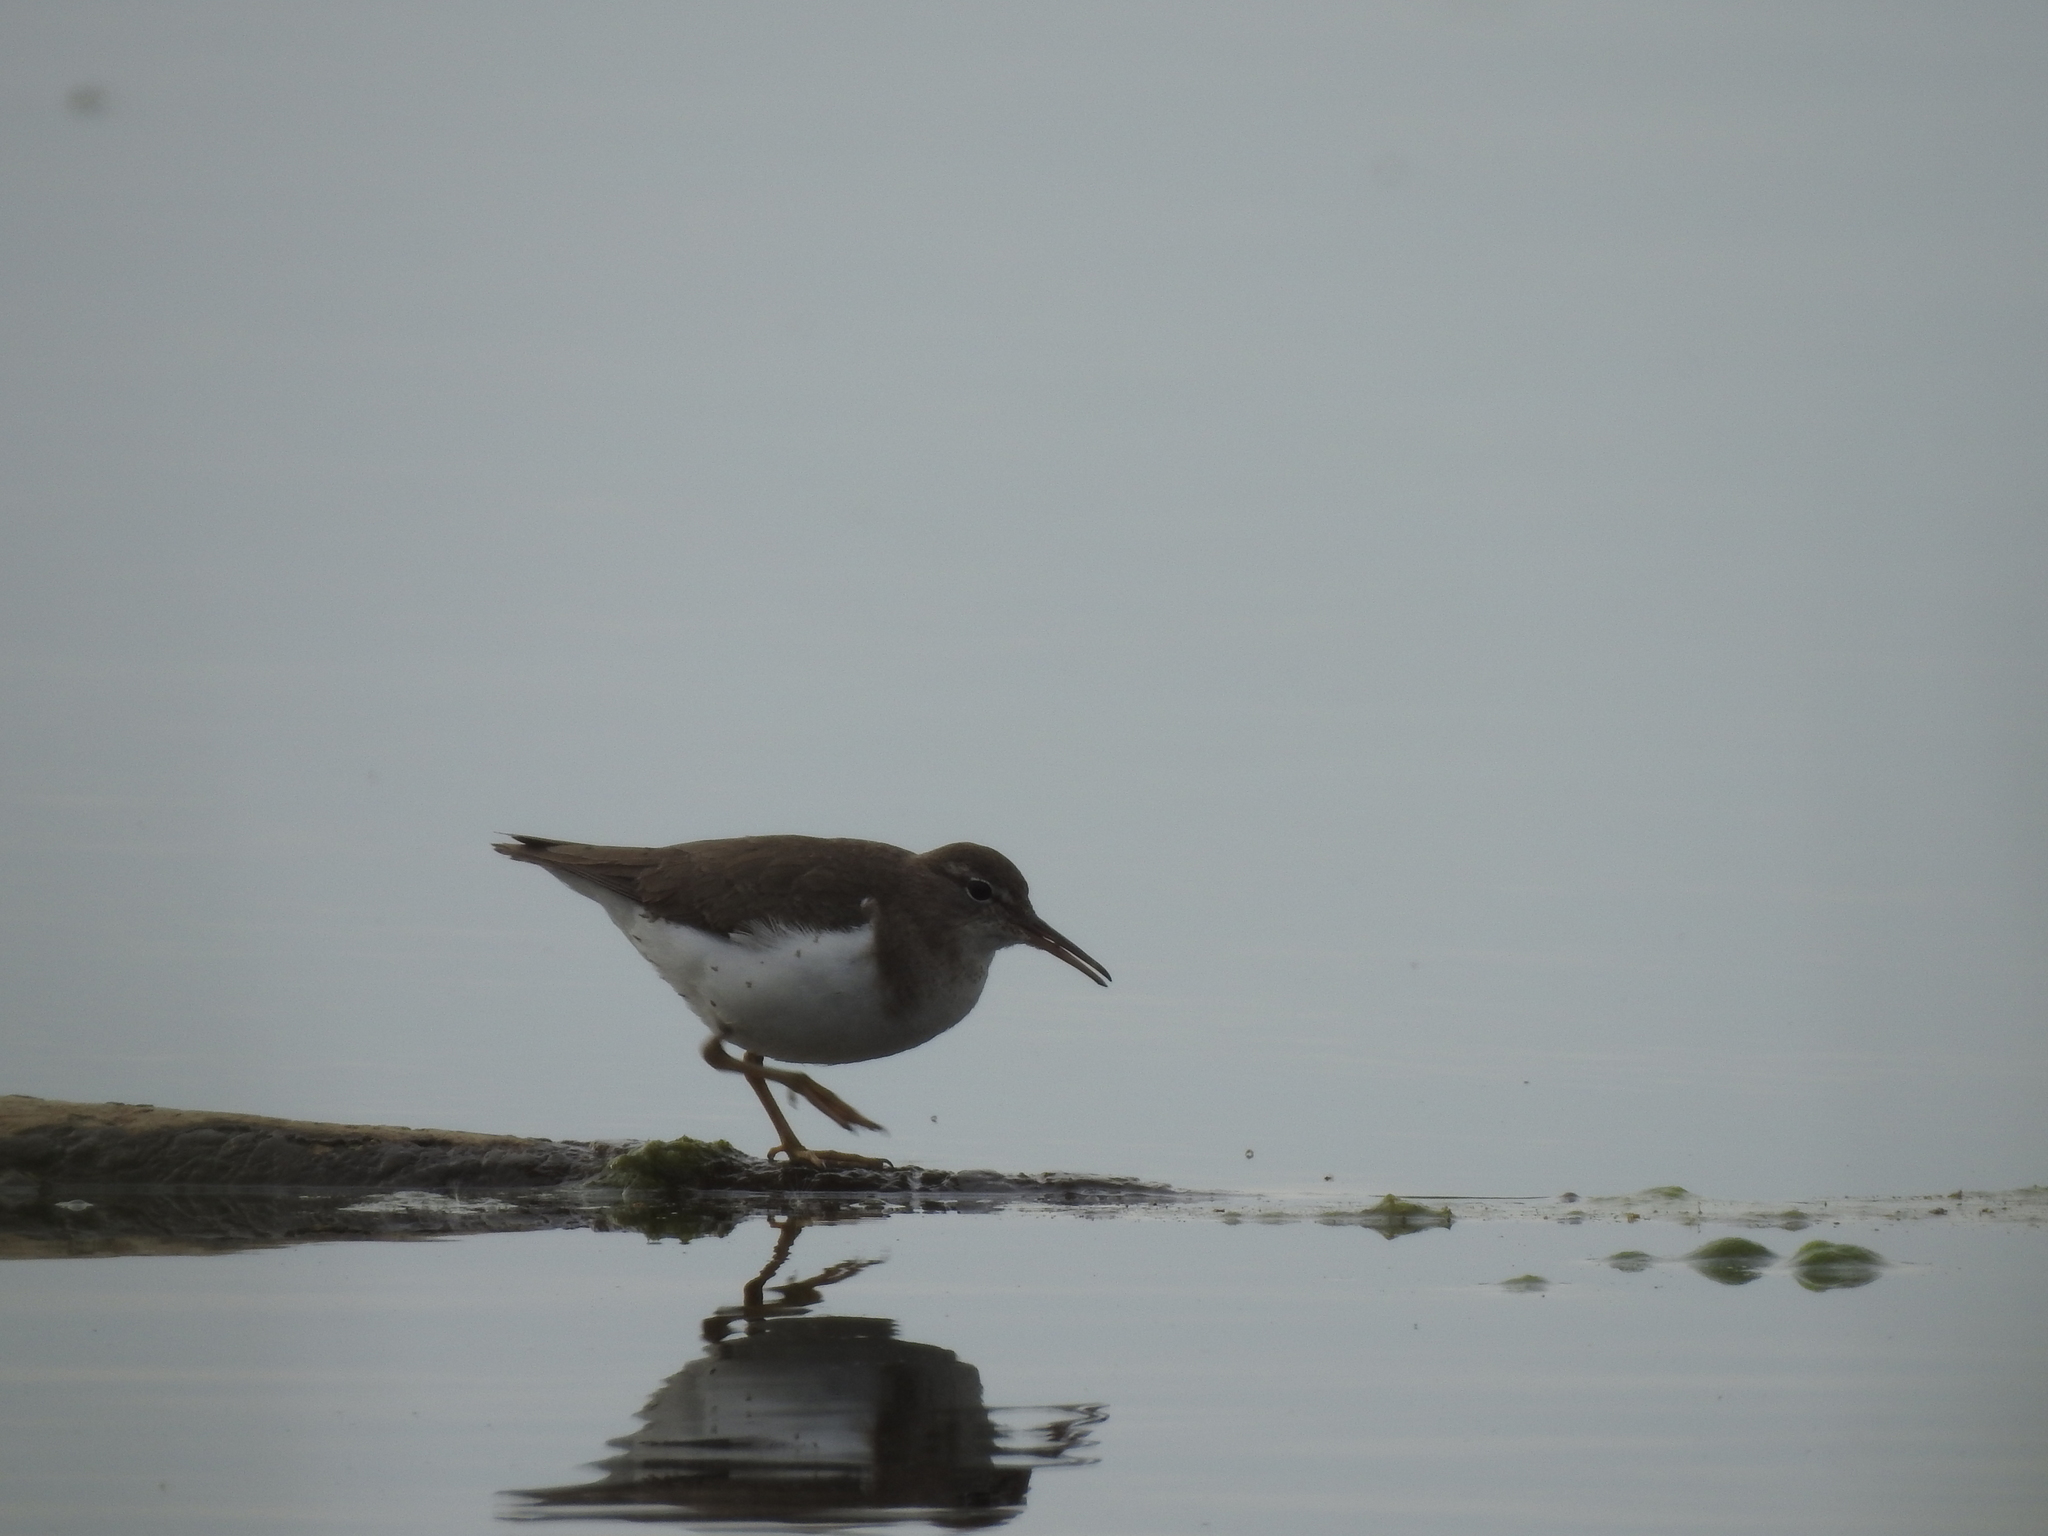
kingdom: Animalia
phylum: Chordata
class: Aves
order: Charadriiformes
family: Scolopacidae
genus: Actitis
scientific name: Actitis macularius
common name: Spotted sandpiper
